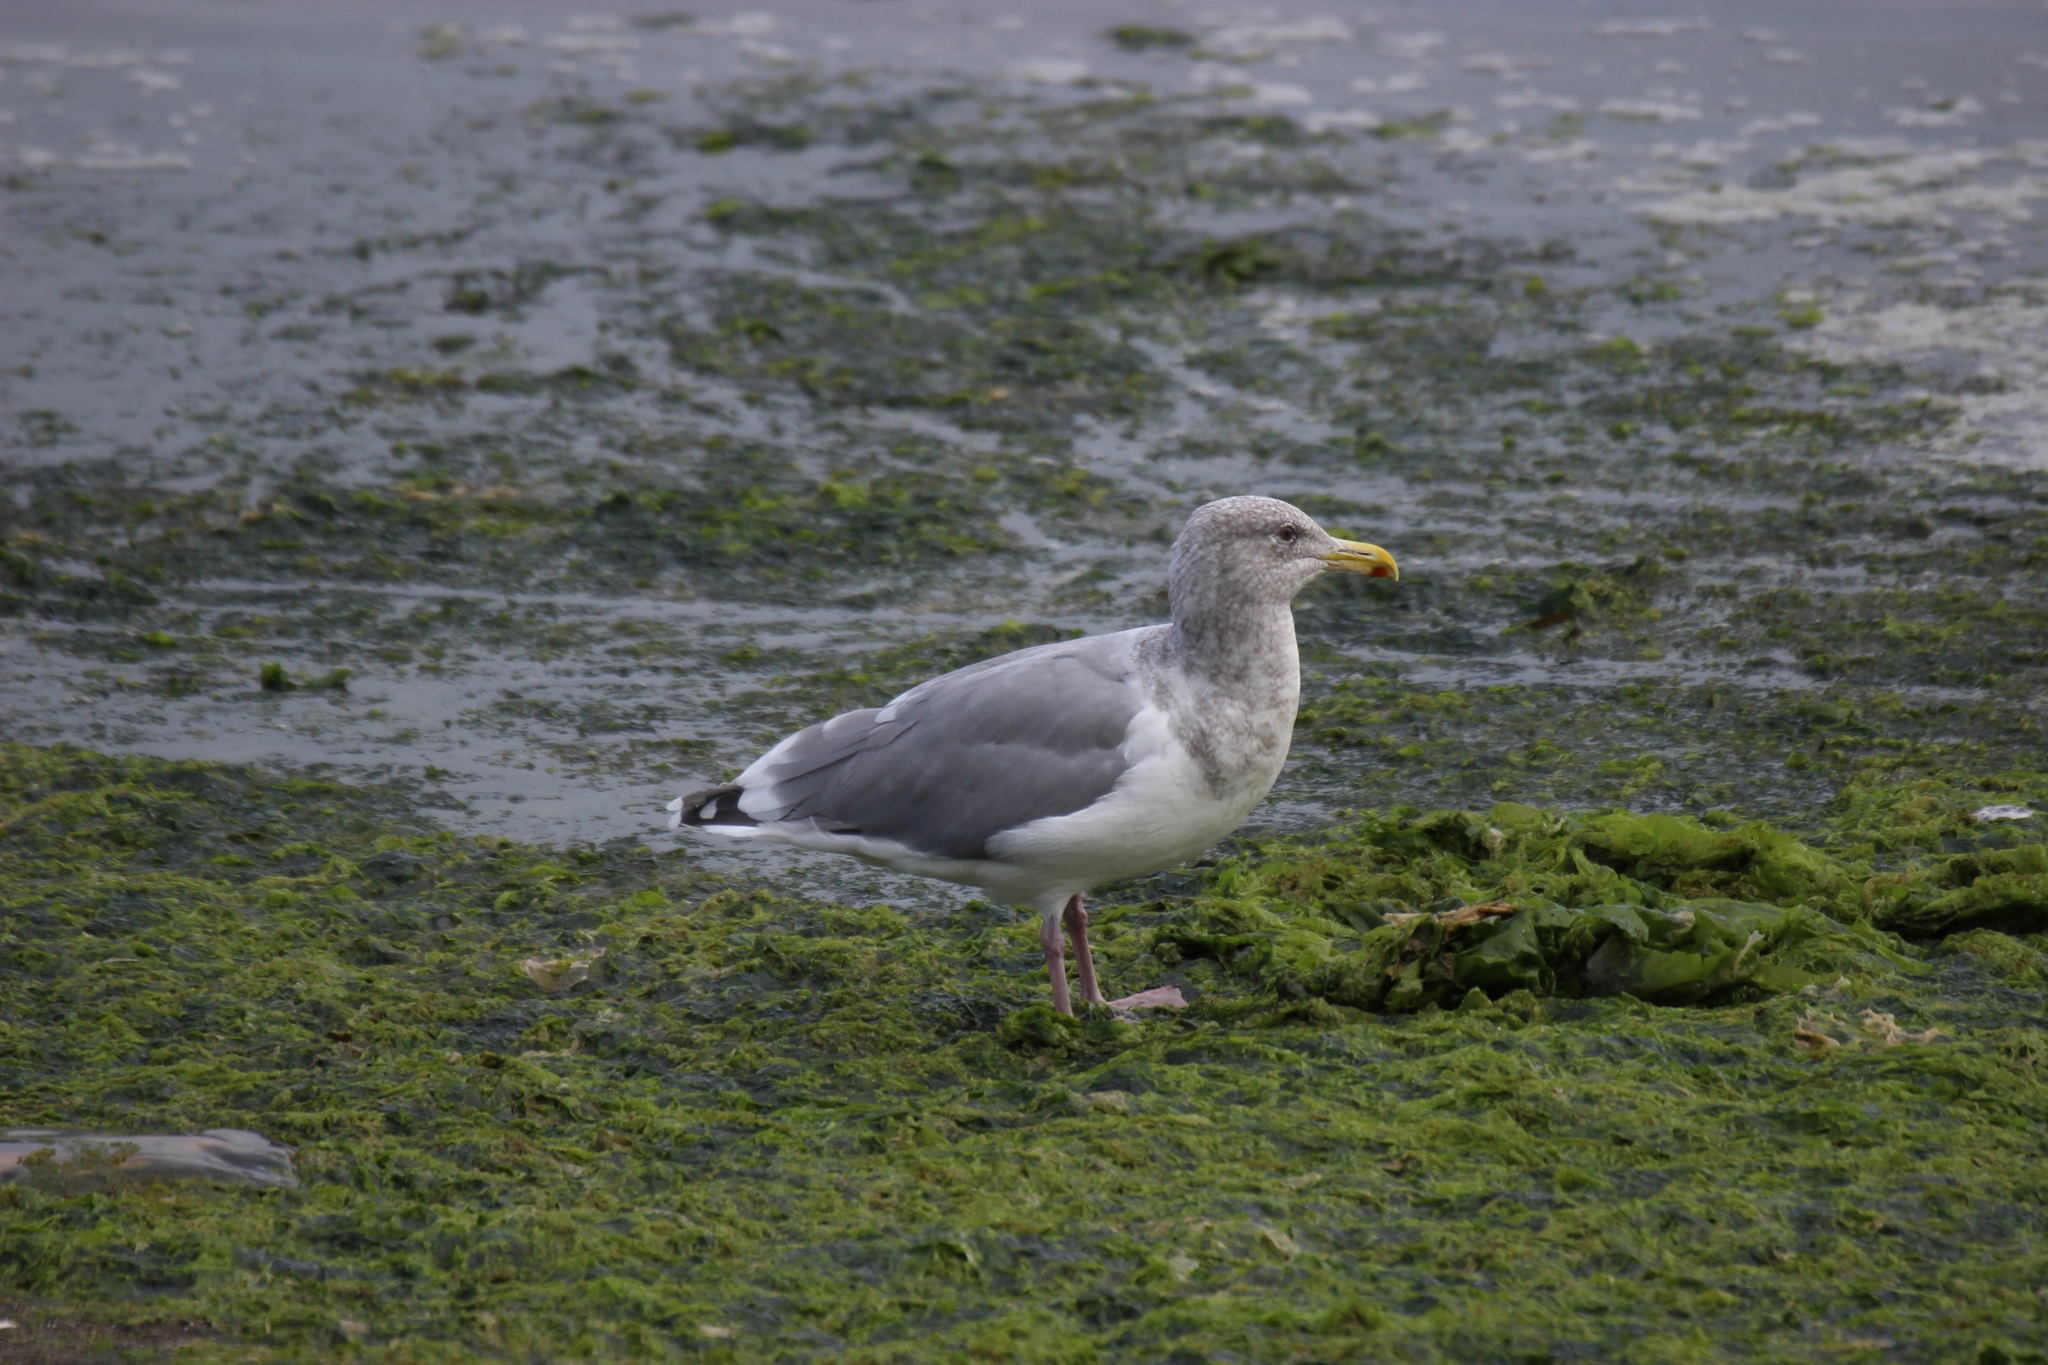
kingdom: Animalia
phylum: Chordata
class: Aves
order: Charadriiformes
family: Laridae
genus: Larus
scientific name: Larus
